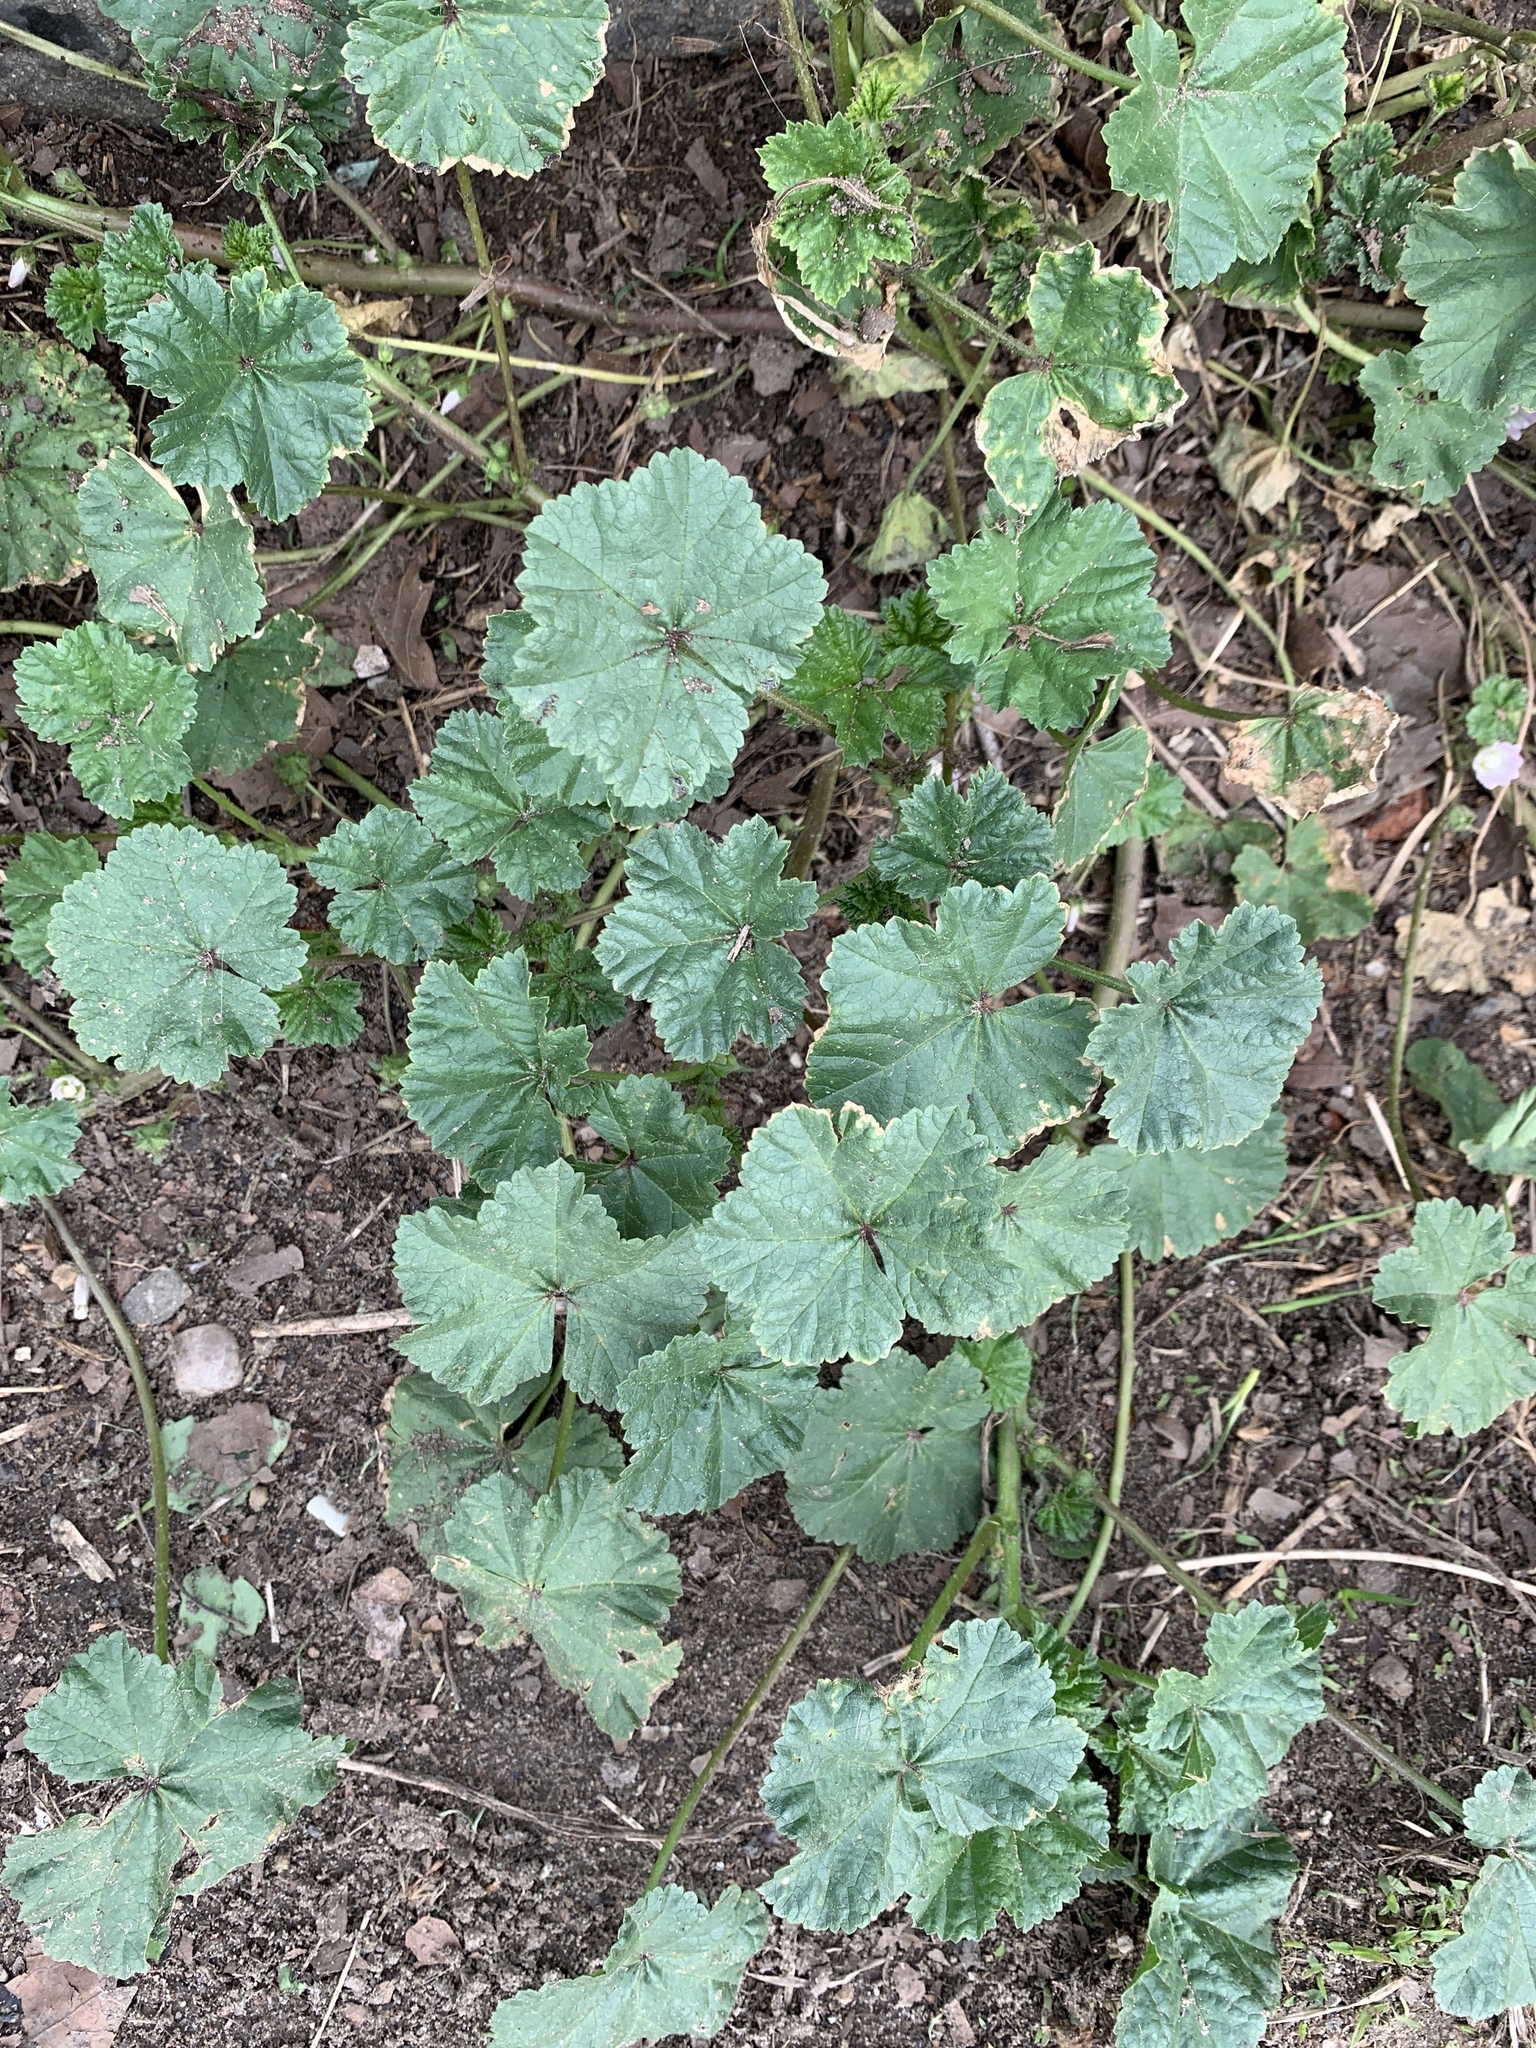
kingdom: Plantae
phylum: Tracheophyta
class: Magnoliopsida
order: Malvales
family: Malvaceae
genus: Malva
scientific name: Malva neglecta
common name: Common mallow
